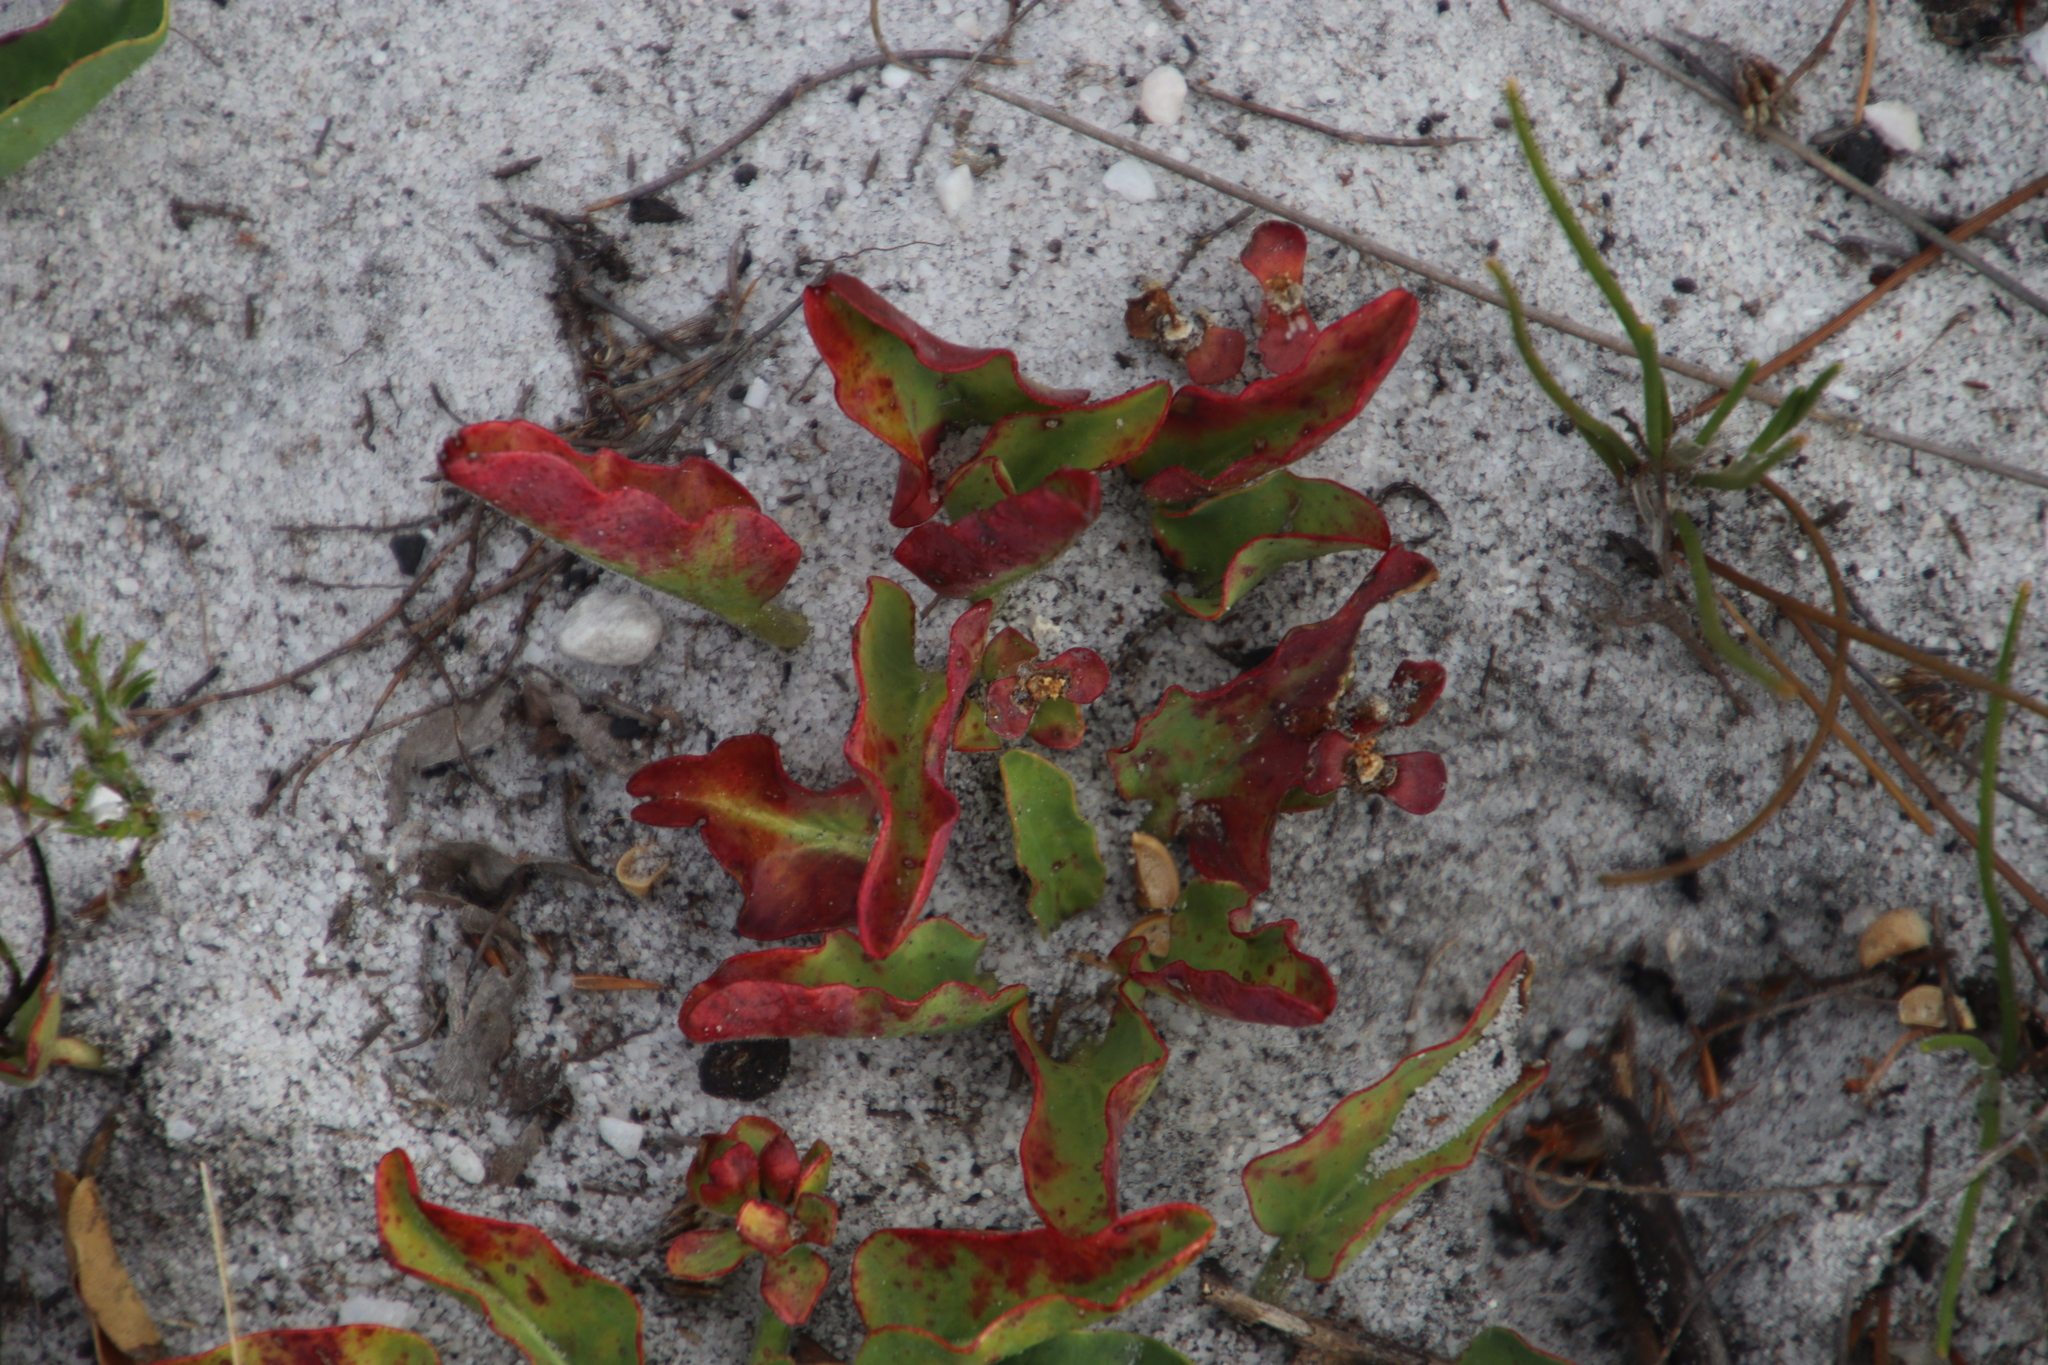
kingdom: Plantae
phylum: Tracheophyta
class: Magnoliopsida
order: Malpighiales
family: Euphorbiaceae
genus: Euphorbia
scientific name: Euphorbia tuberosa
